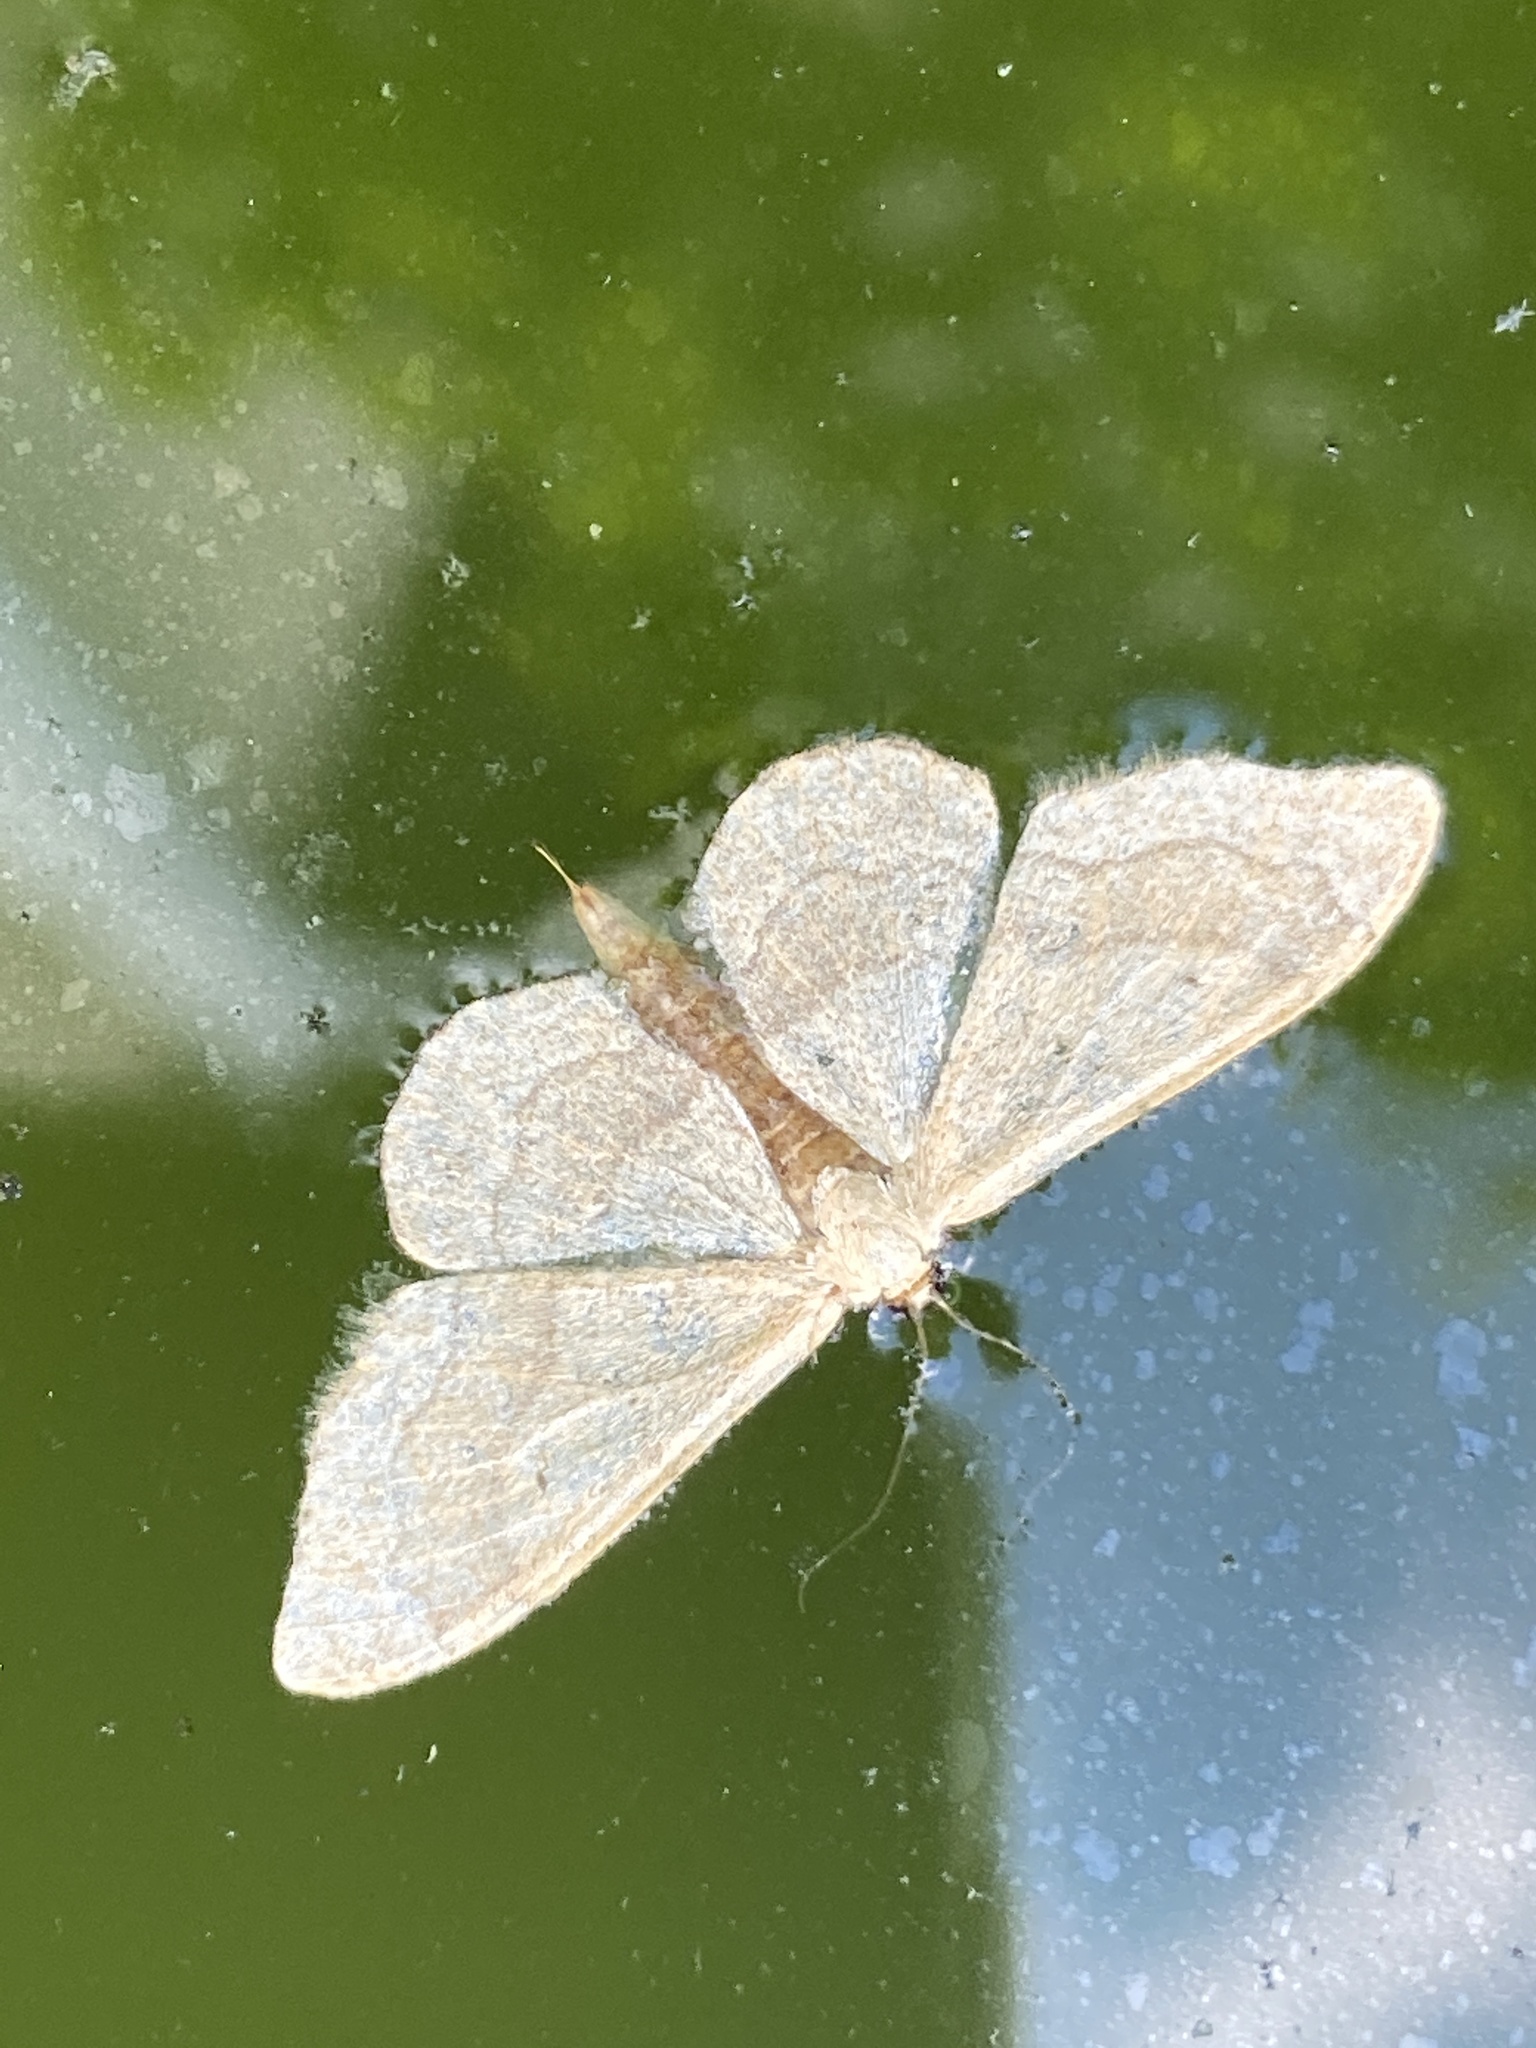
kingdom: Animalia
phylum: Arthropoda
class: Insecta
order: Lepidoptera
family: Geometridae
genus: Idaea
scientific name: Idaea aversata
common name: Riband wave
